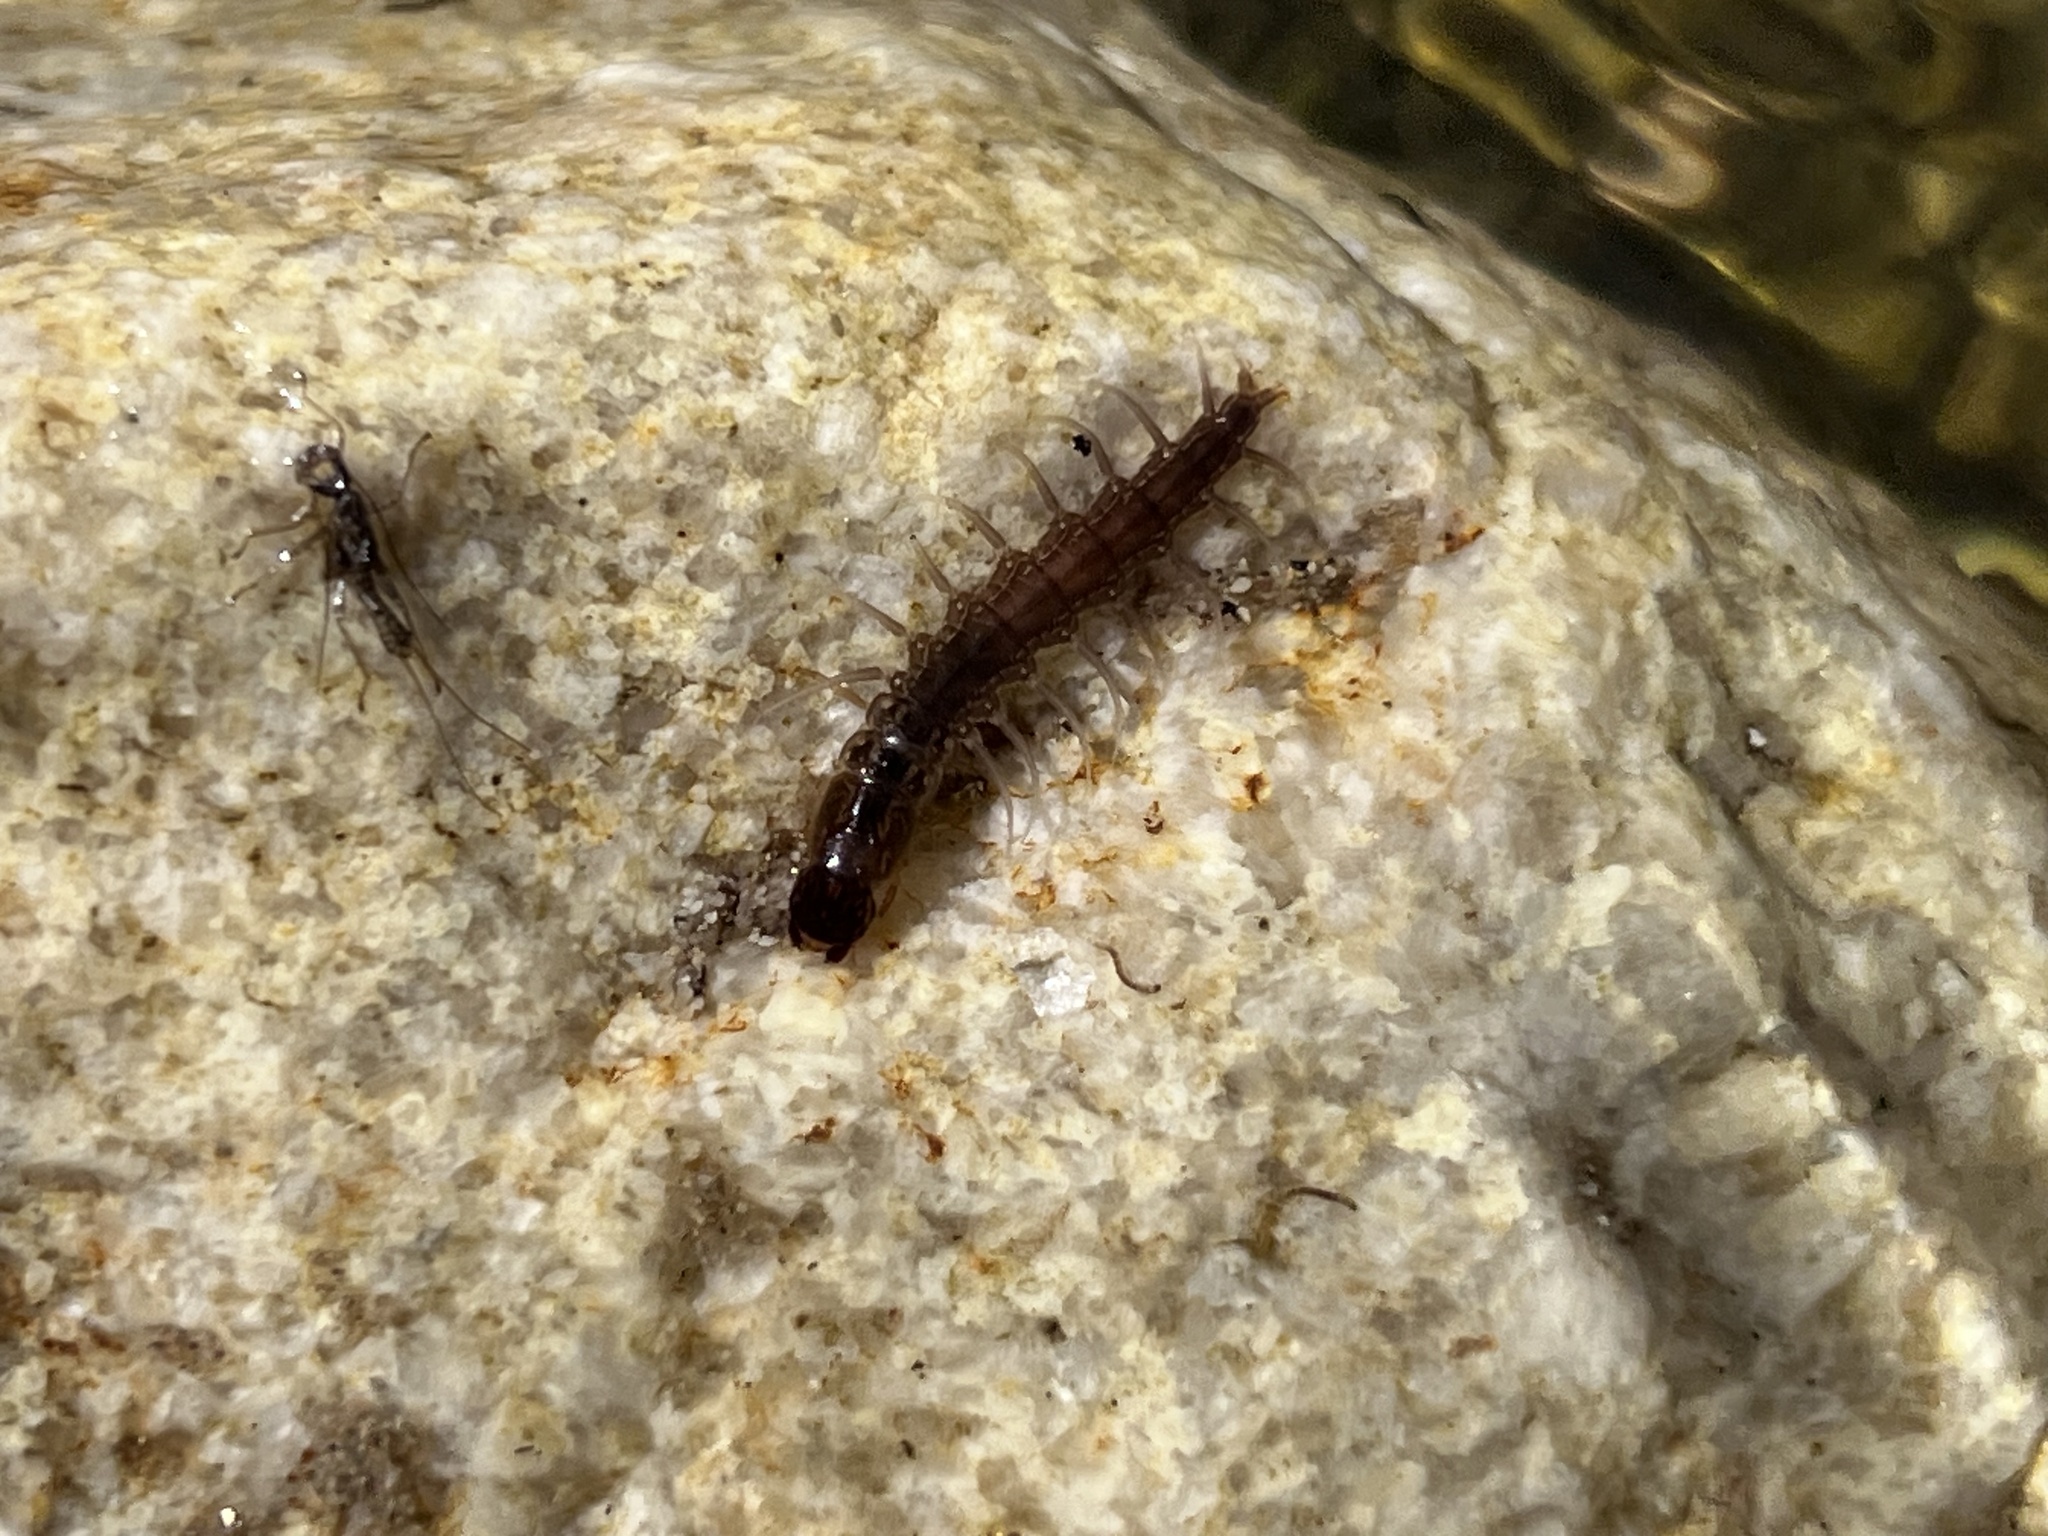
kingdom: Animalia
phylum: Arthropoda
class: Insecta
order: Megaloptera
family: Corydalidae
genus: Neohermes
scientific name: Neohermes filicornis
